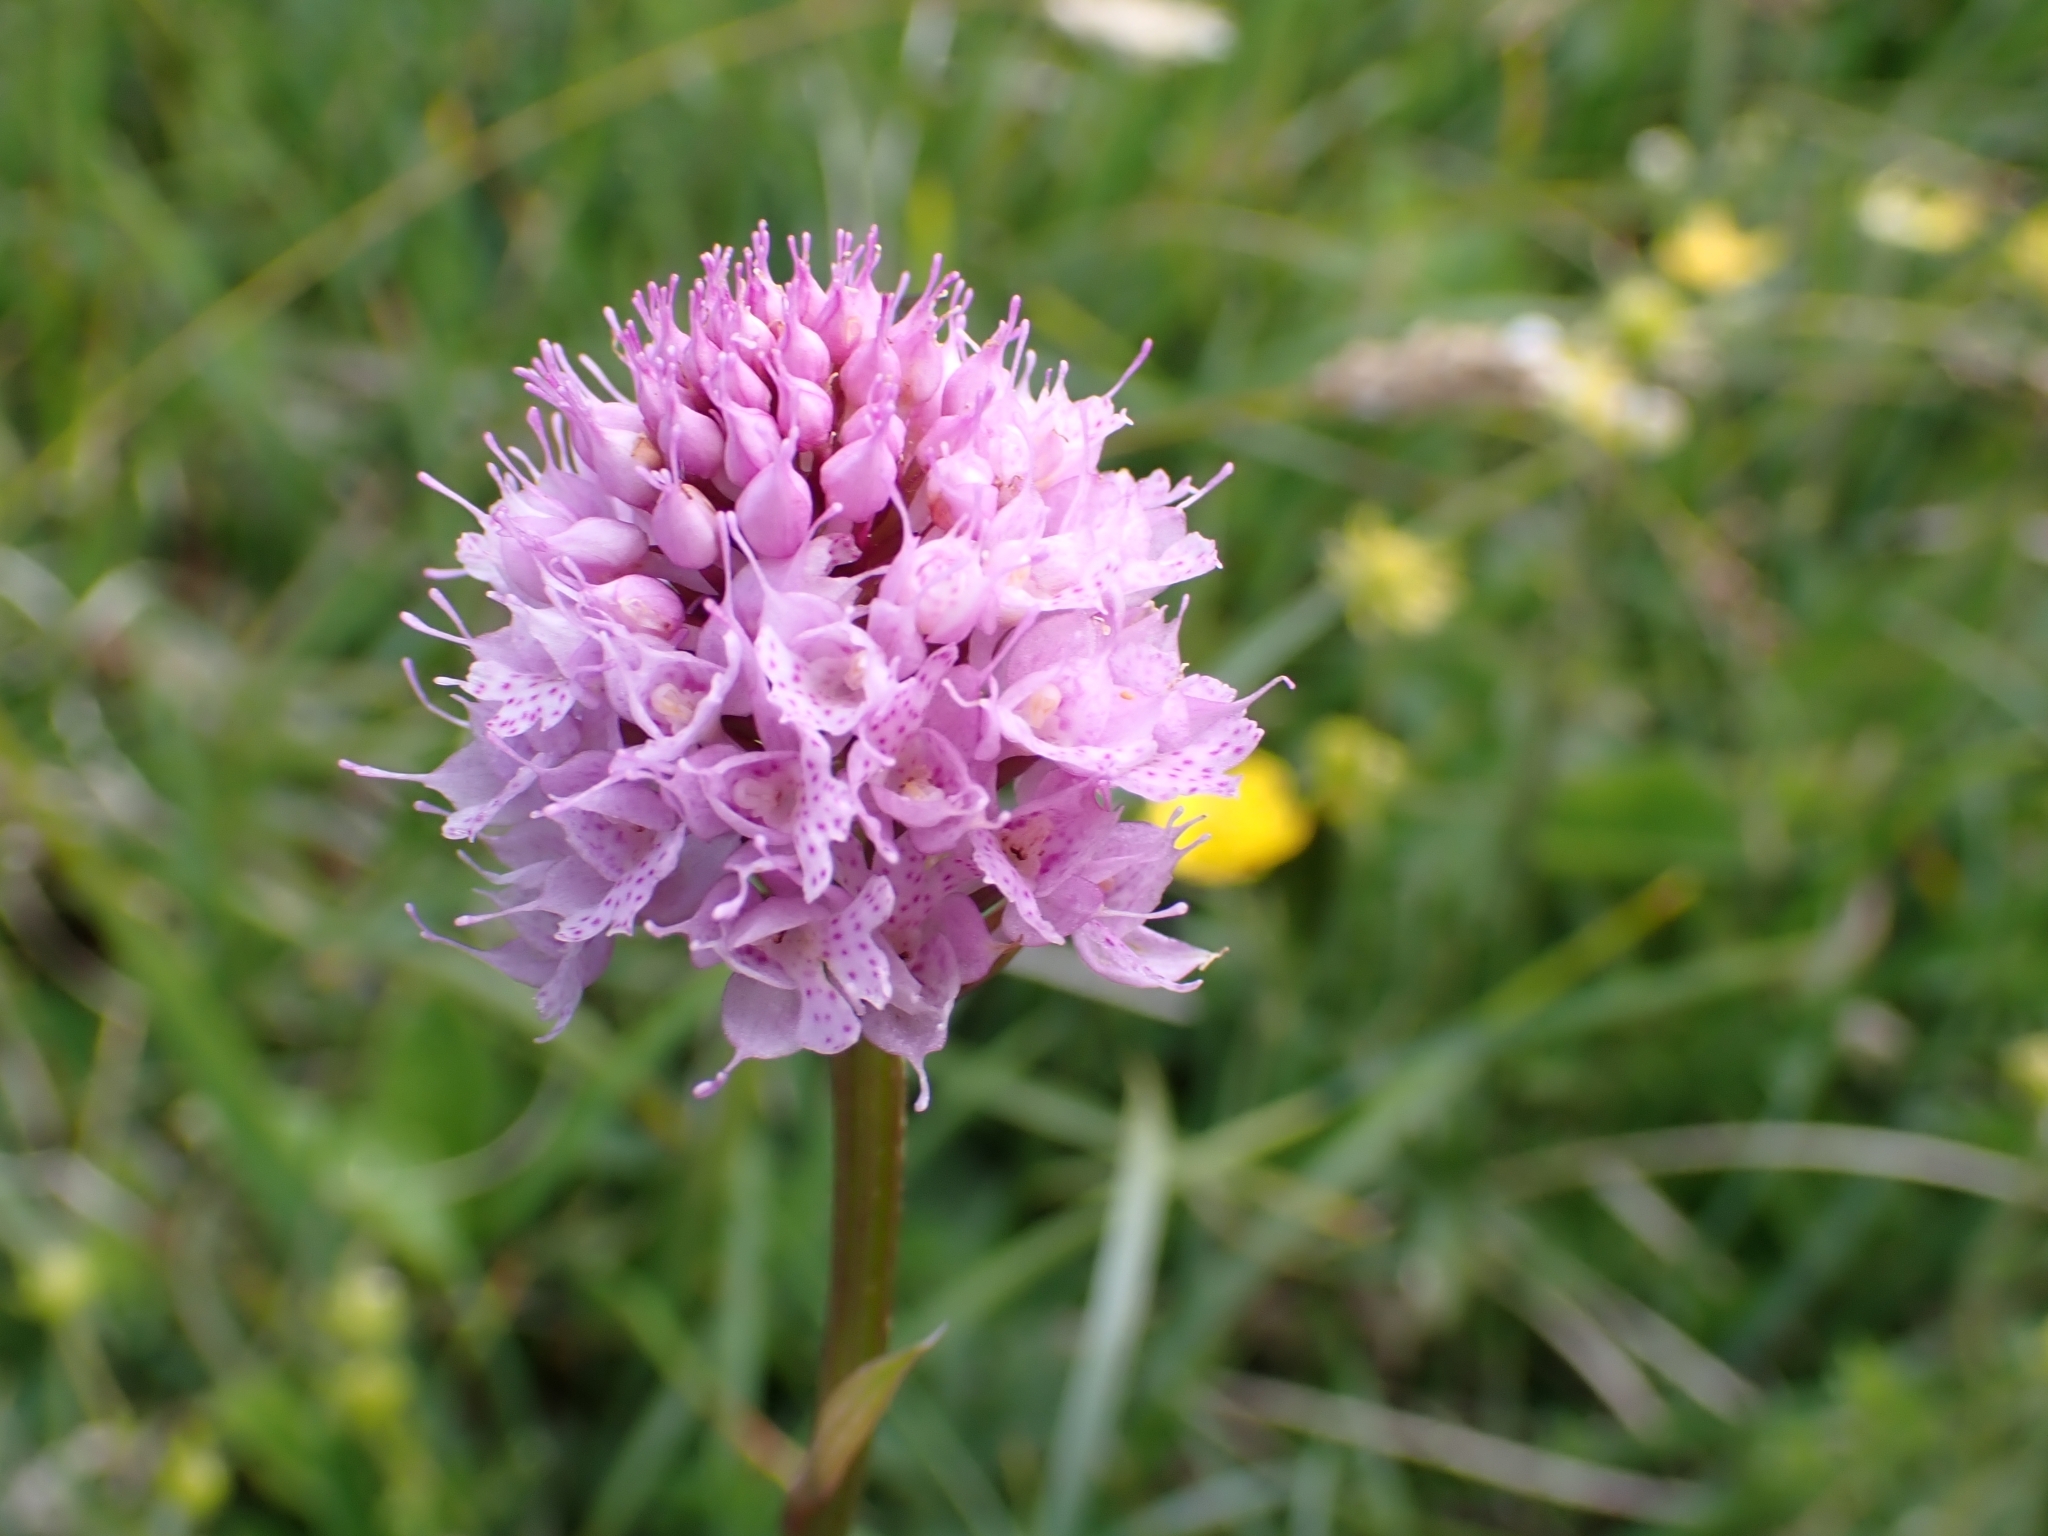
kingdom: Plantae
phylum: Tracheophyta
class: Liliopsida
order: Asparagales
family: Orchidaceae
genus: Traunsteinera
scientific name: Traunsteinera globosa
